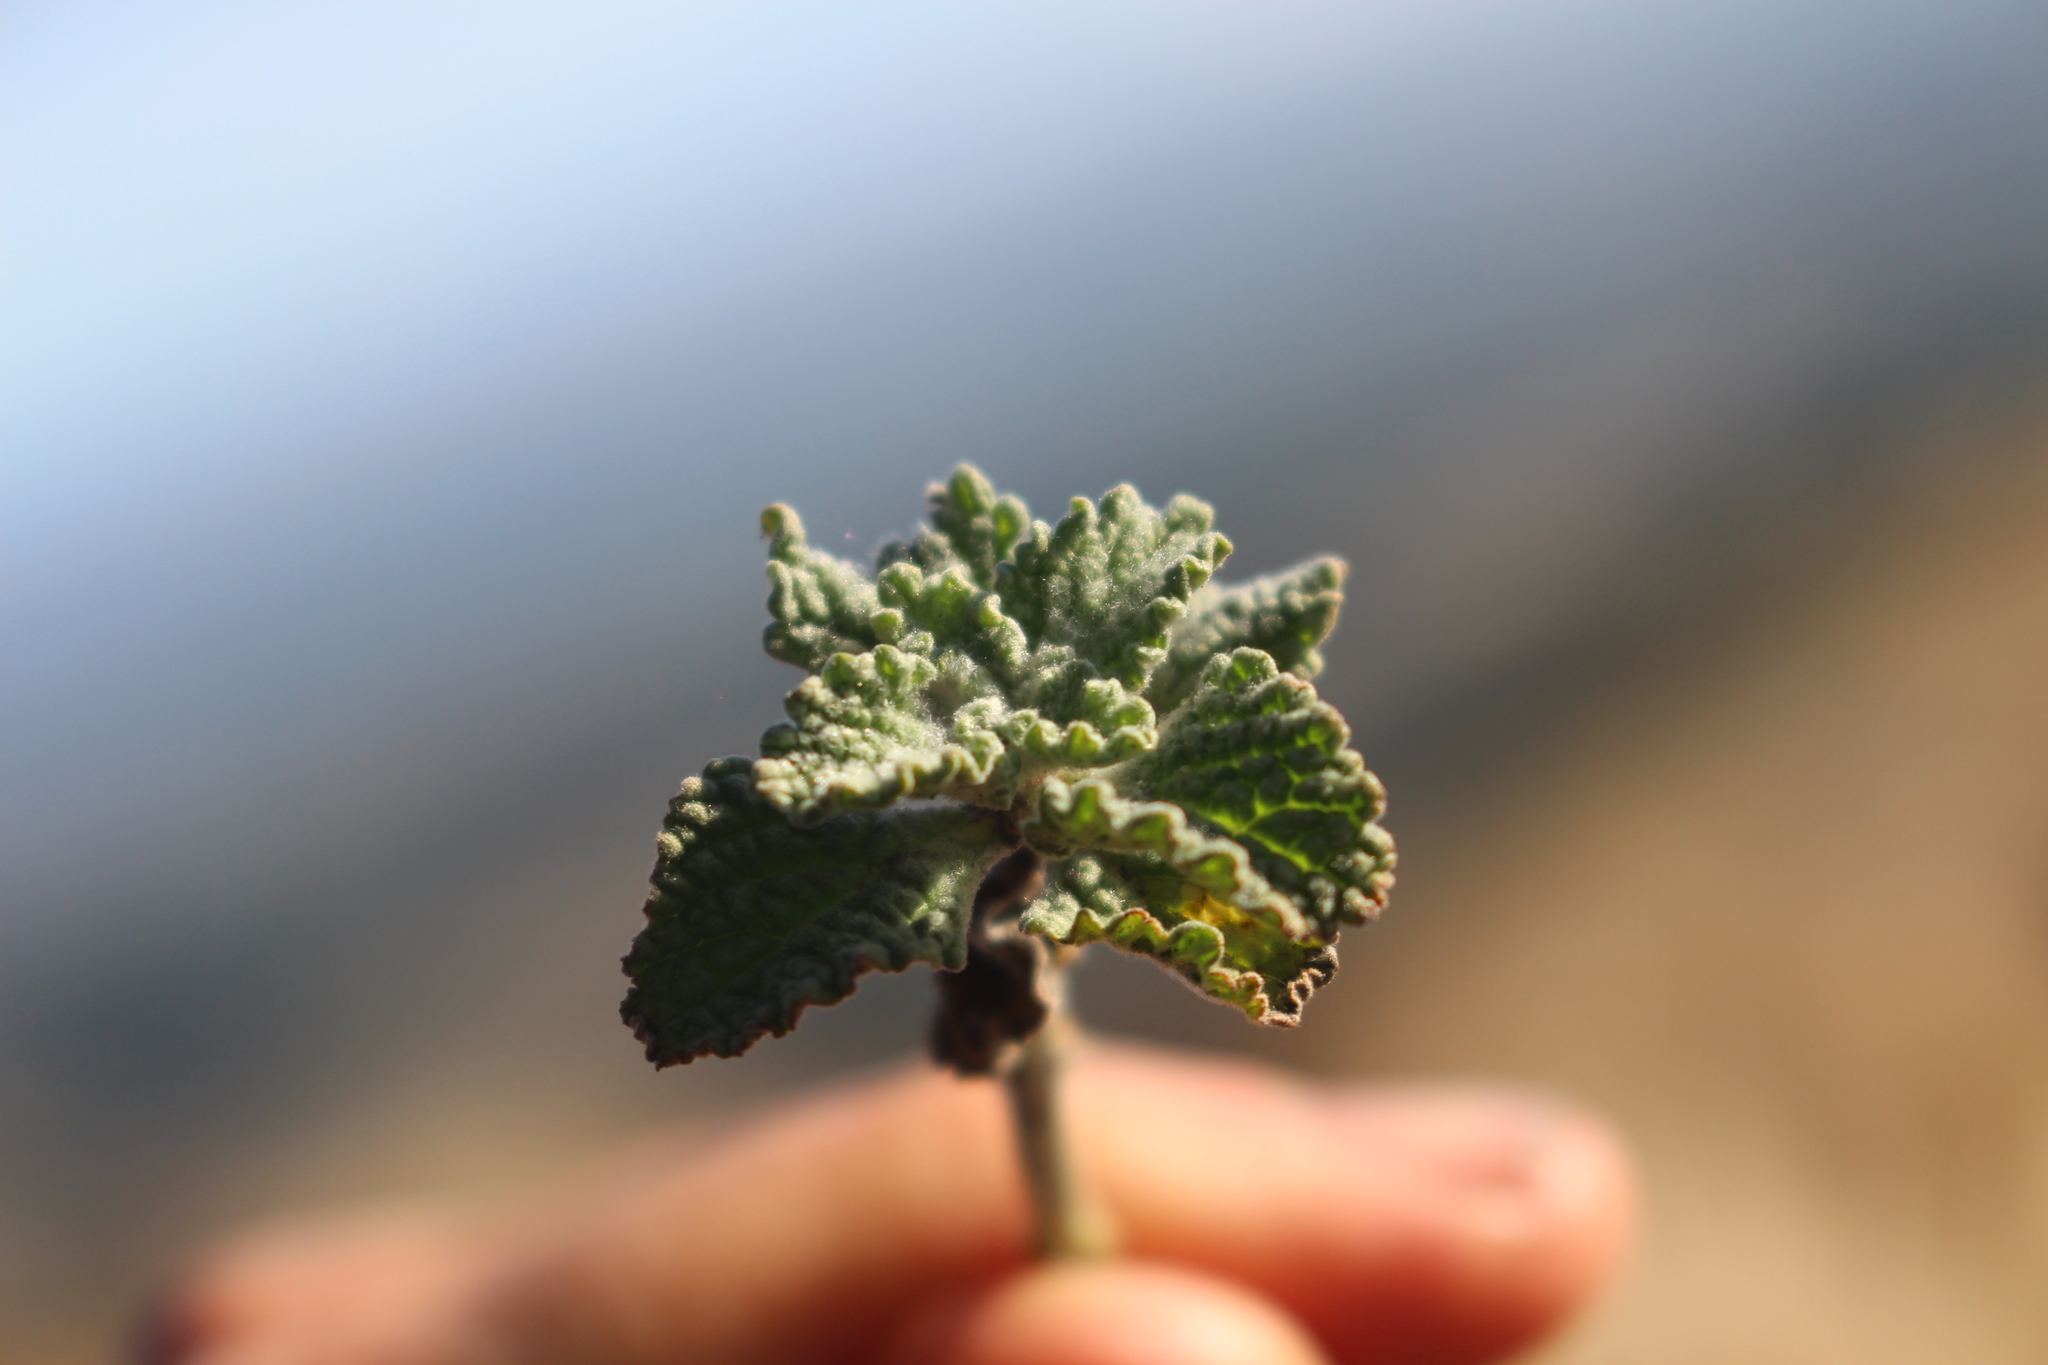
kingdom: Plantae
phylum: Tracheophyta
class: Magnoliopsida
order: Lamiales
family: Lamiaceae
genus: Marrubium
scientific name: Marrubium vulgare
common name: Horehound
